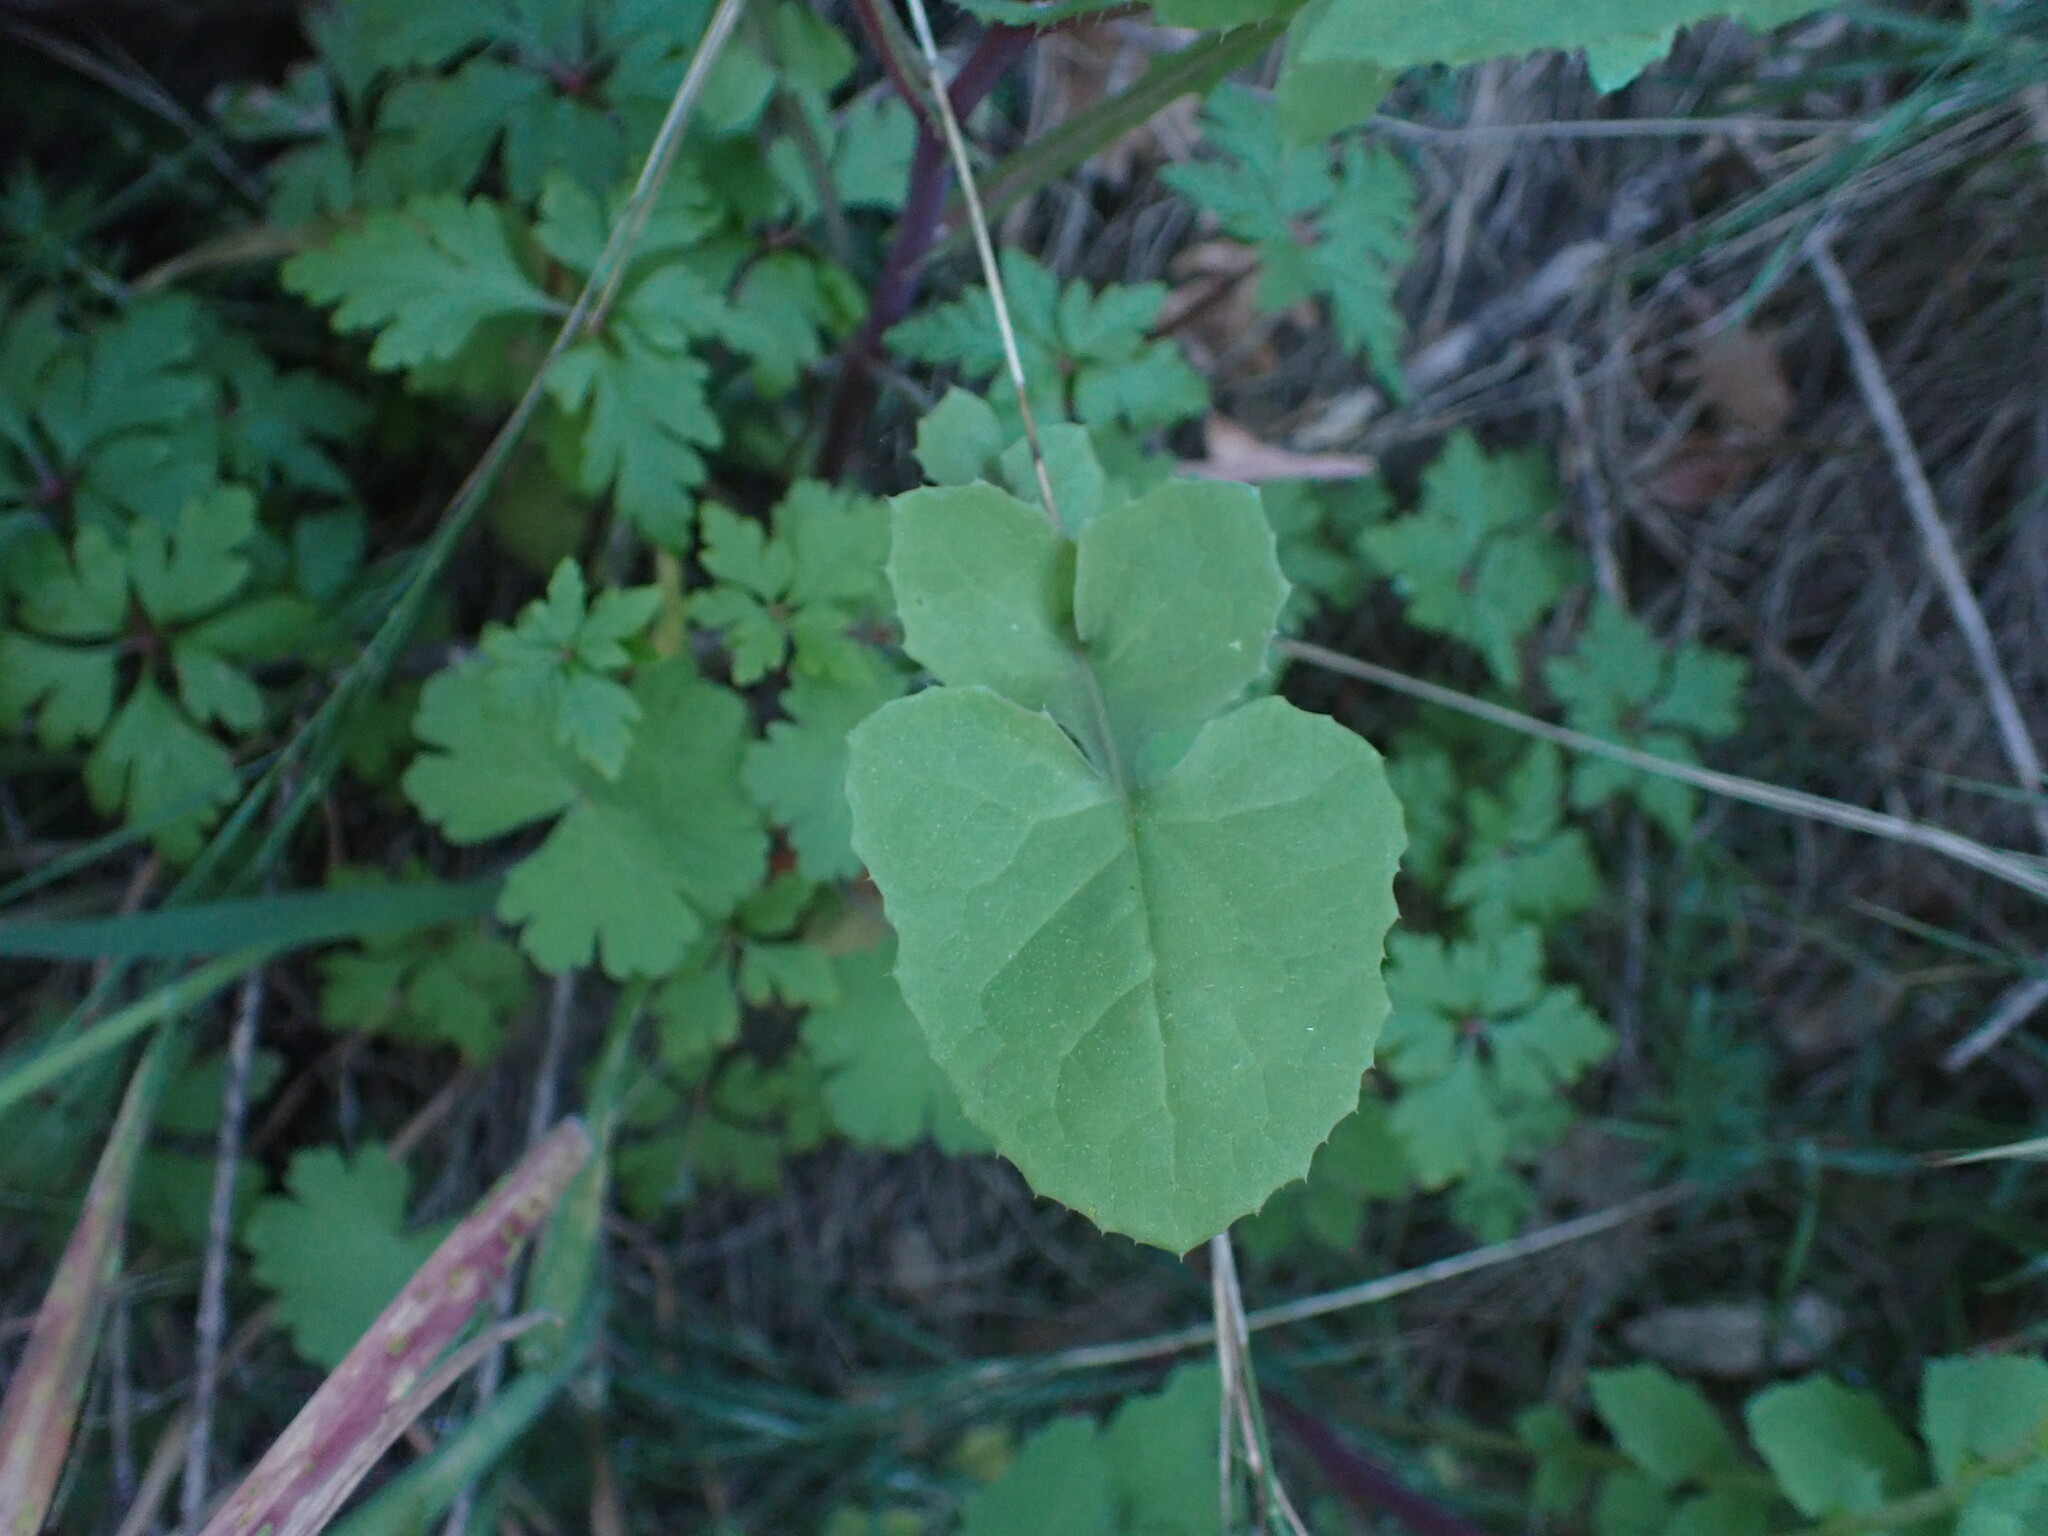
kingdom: Plantae
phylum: Tracheophyta
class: Magnoliopsida
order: Asterales
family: Asteraceae
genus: Sonchus
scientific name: Sonchus oleraceus
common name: Common sowthistle
